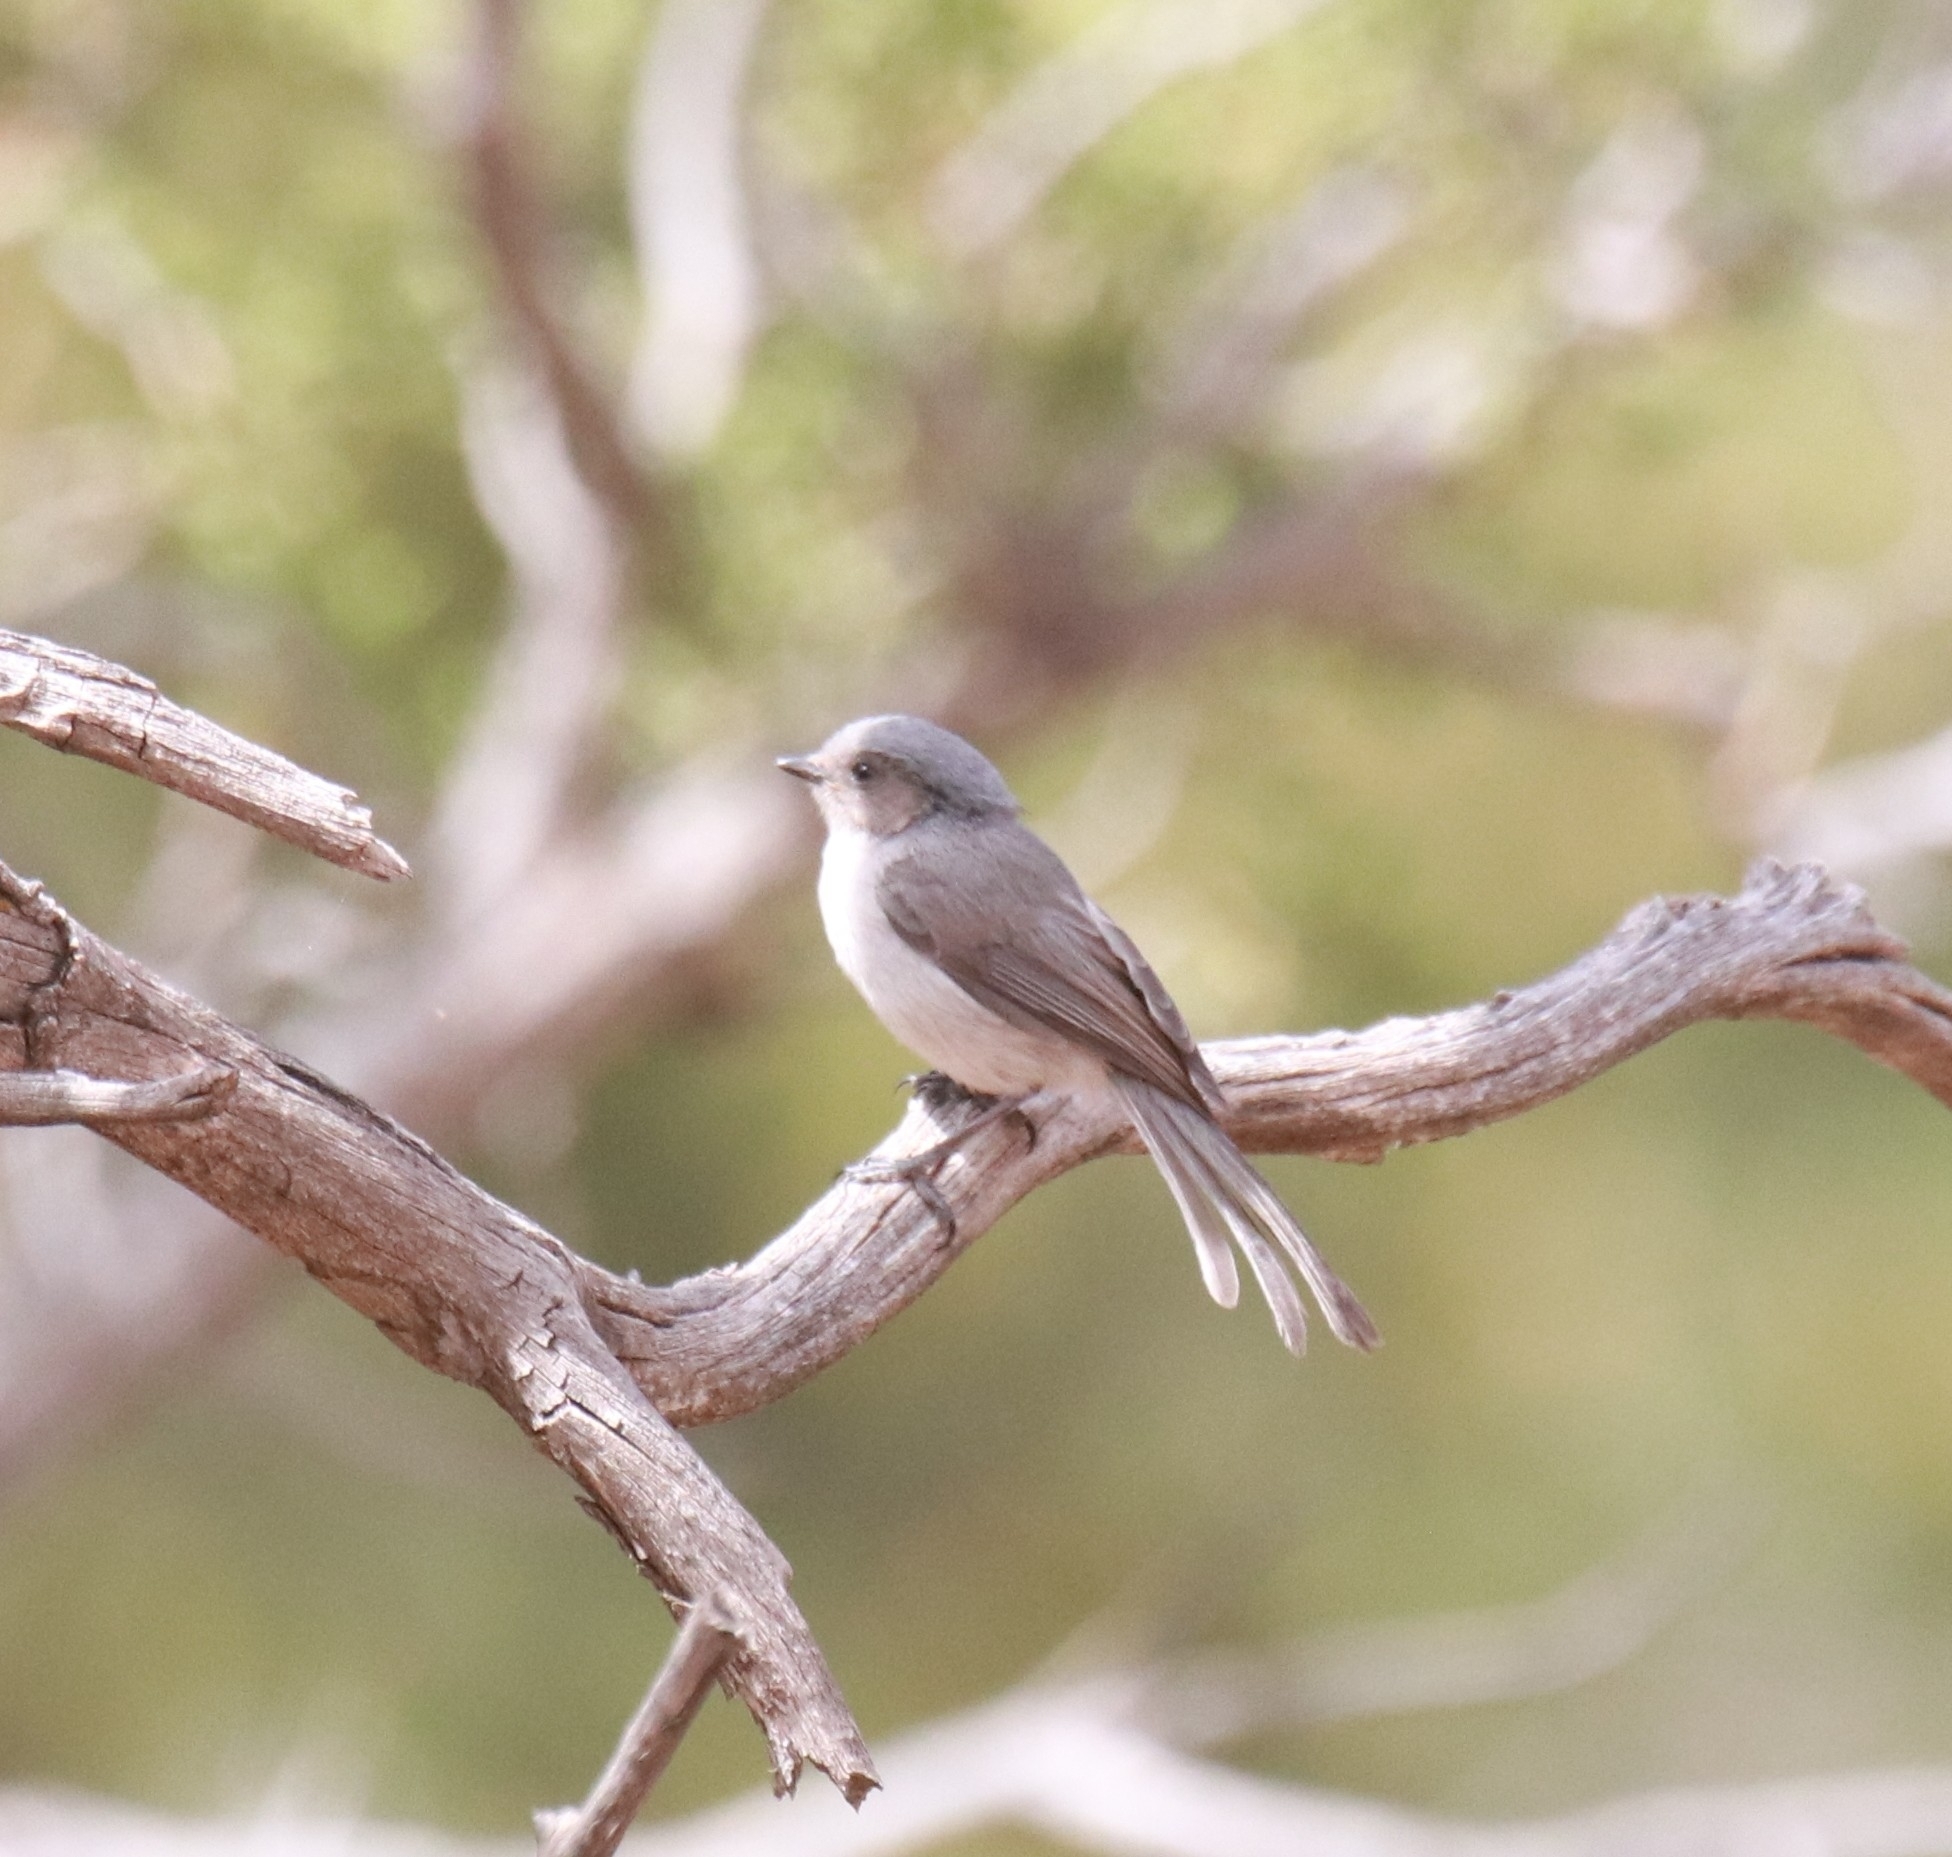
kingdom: Animalia
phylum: Chordata
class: Aves
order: Passeriformes
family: Aegithalidae
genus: Psaltriparus
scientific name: Psaltriparus minimus
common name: American bushtit
